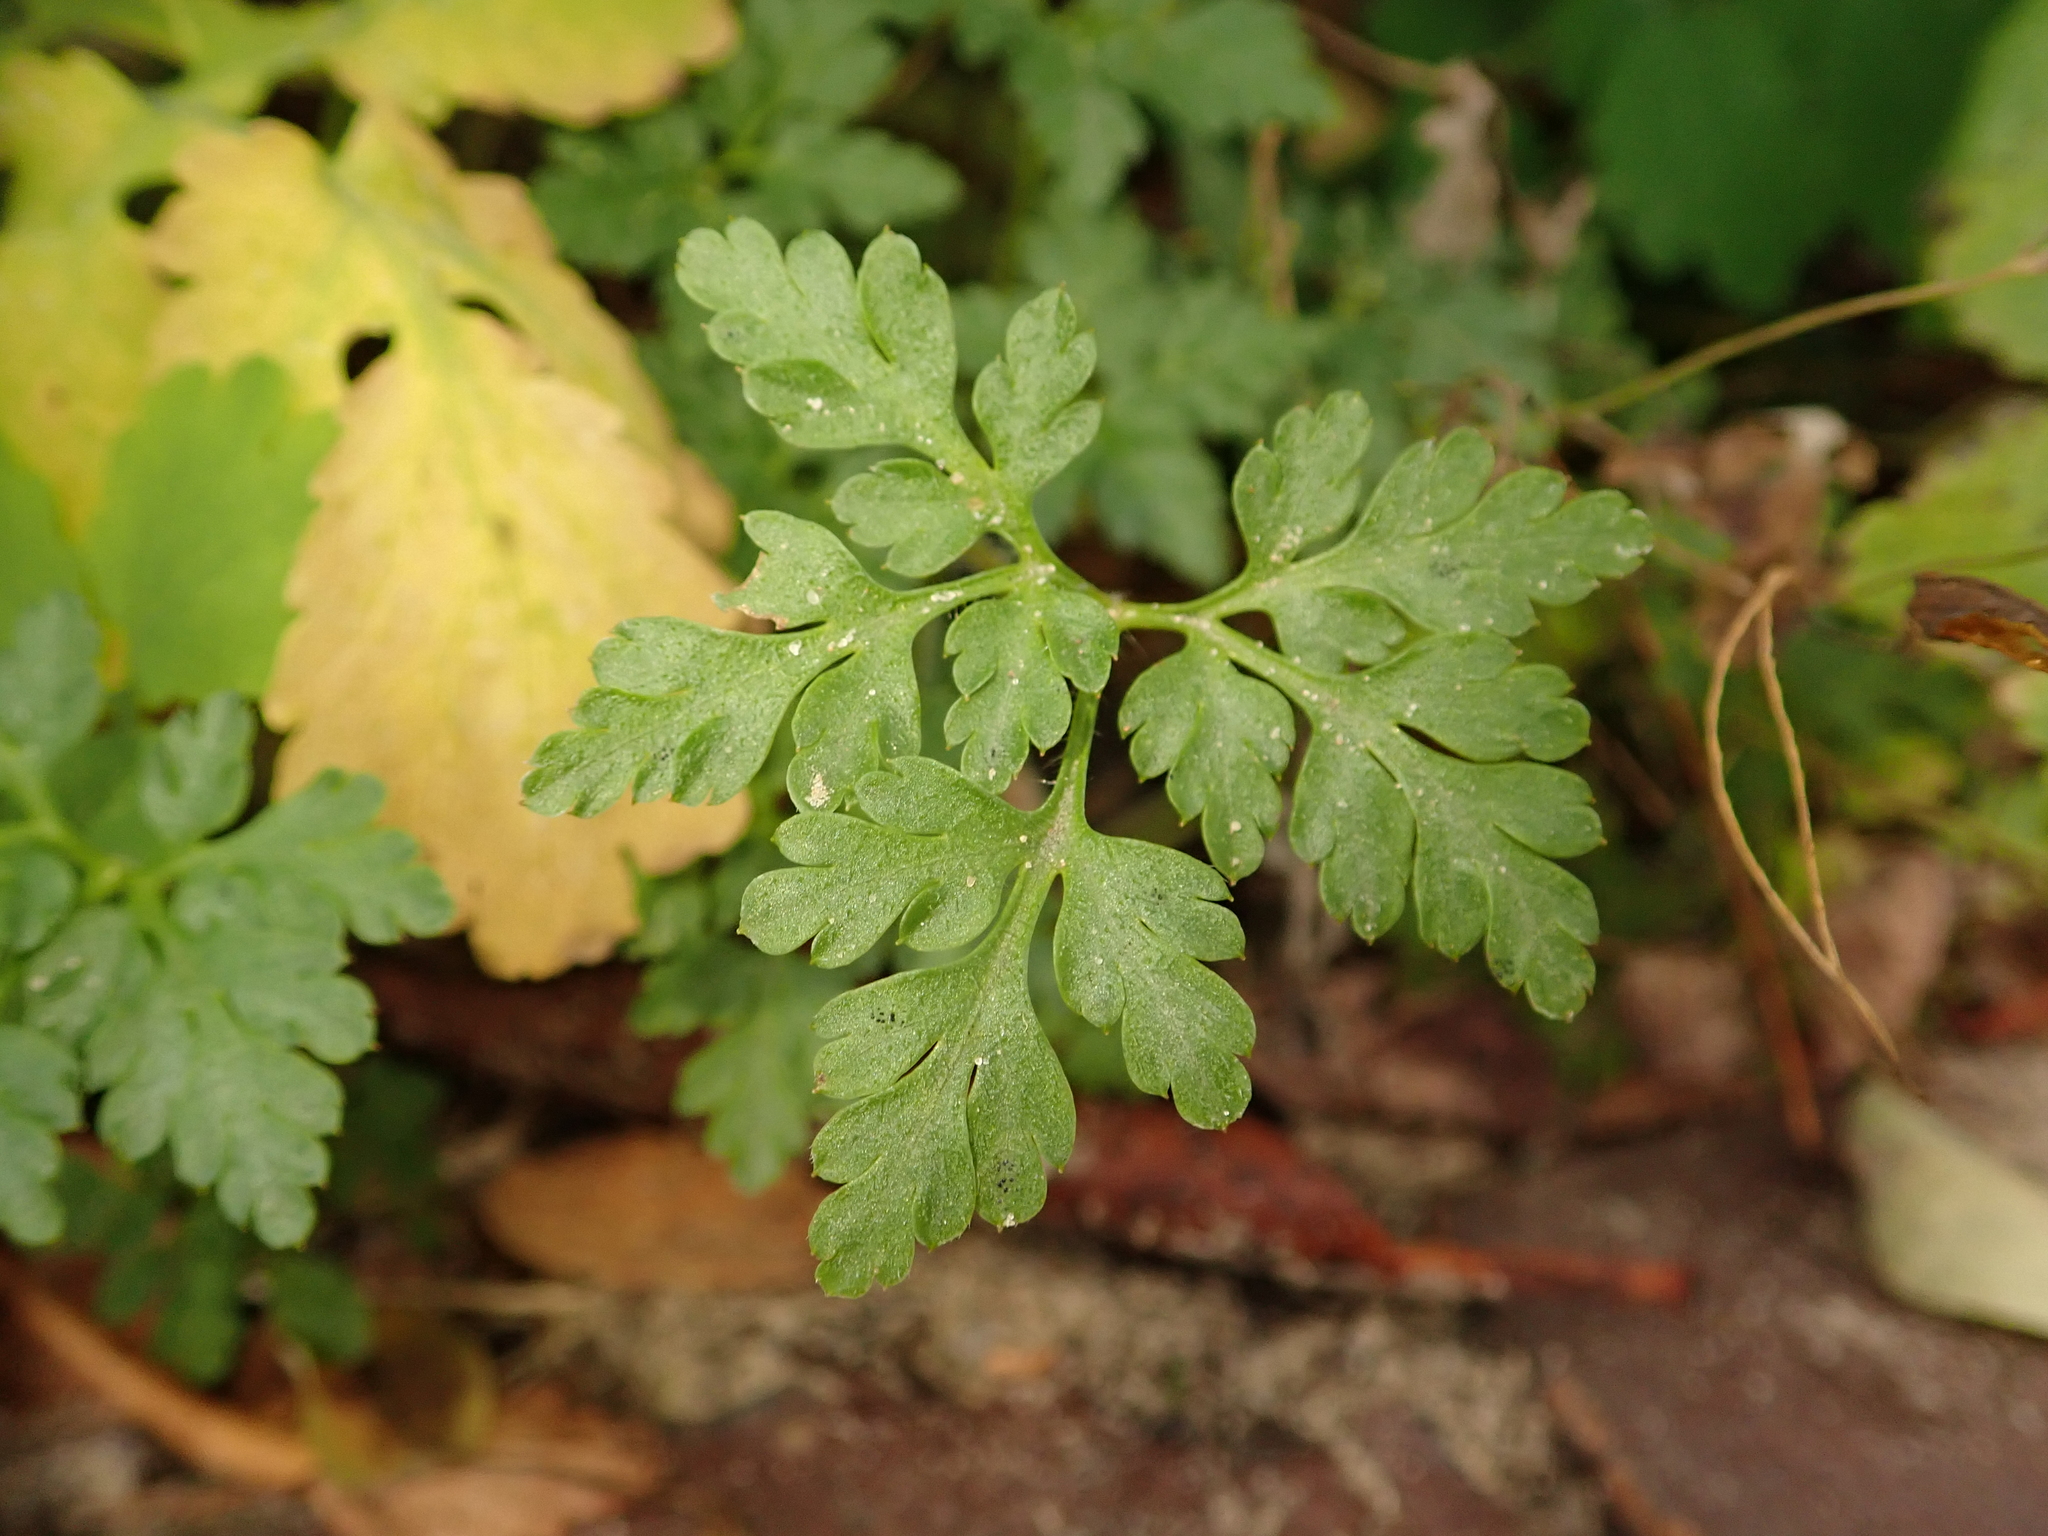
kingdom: Plantae
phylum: Tracheophyta
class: Magnoliopsida
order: Geraniales
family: Geraniaceae
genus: Geranium
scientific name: Geranium robertianum
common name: Herb-robert
